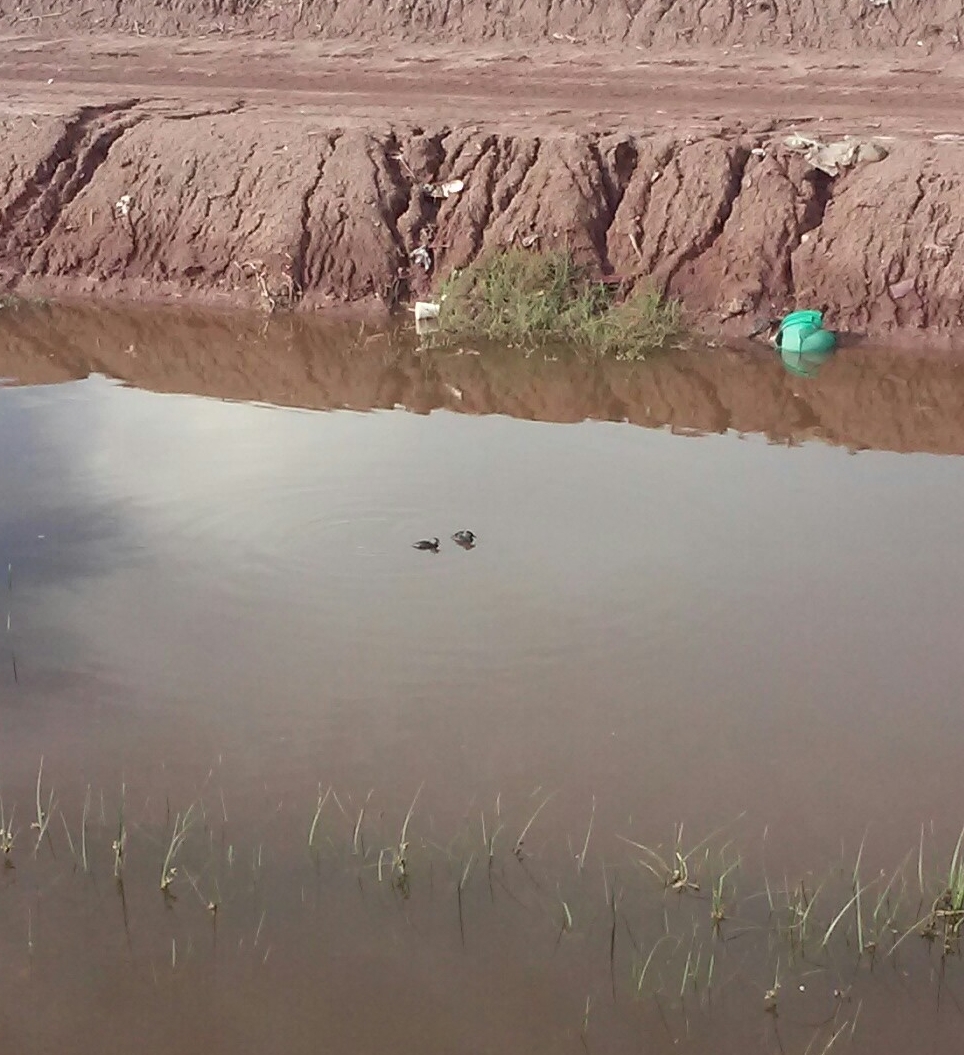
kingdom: Animalia
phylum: Chordata
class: Aves
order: Podicipediformes
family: Podicipedidae
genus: Podiceps
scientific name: Podiceps nigricollis
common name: Black-necked grebe
